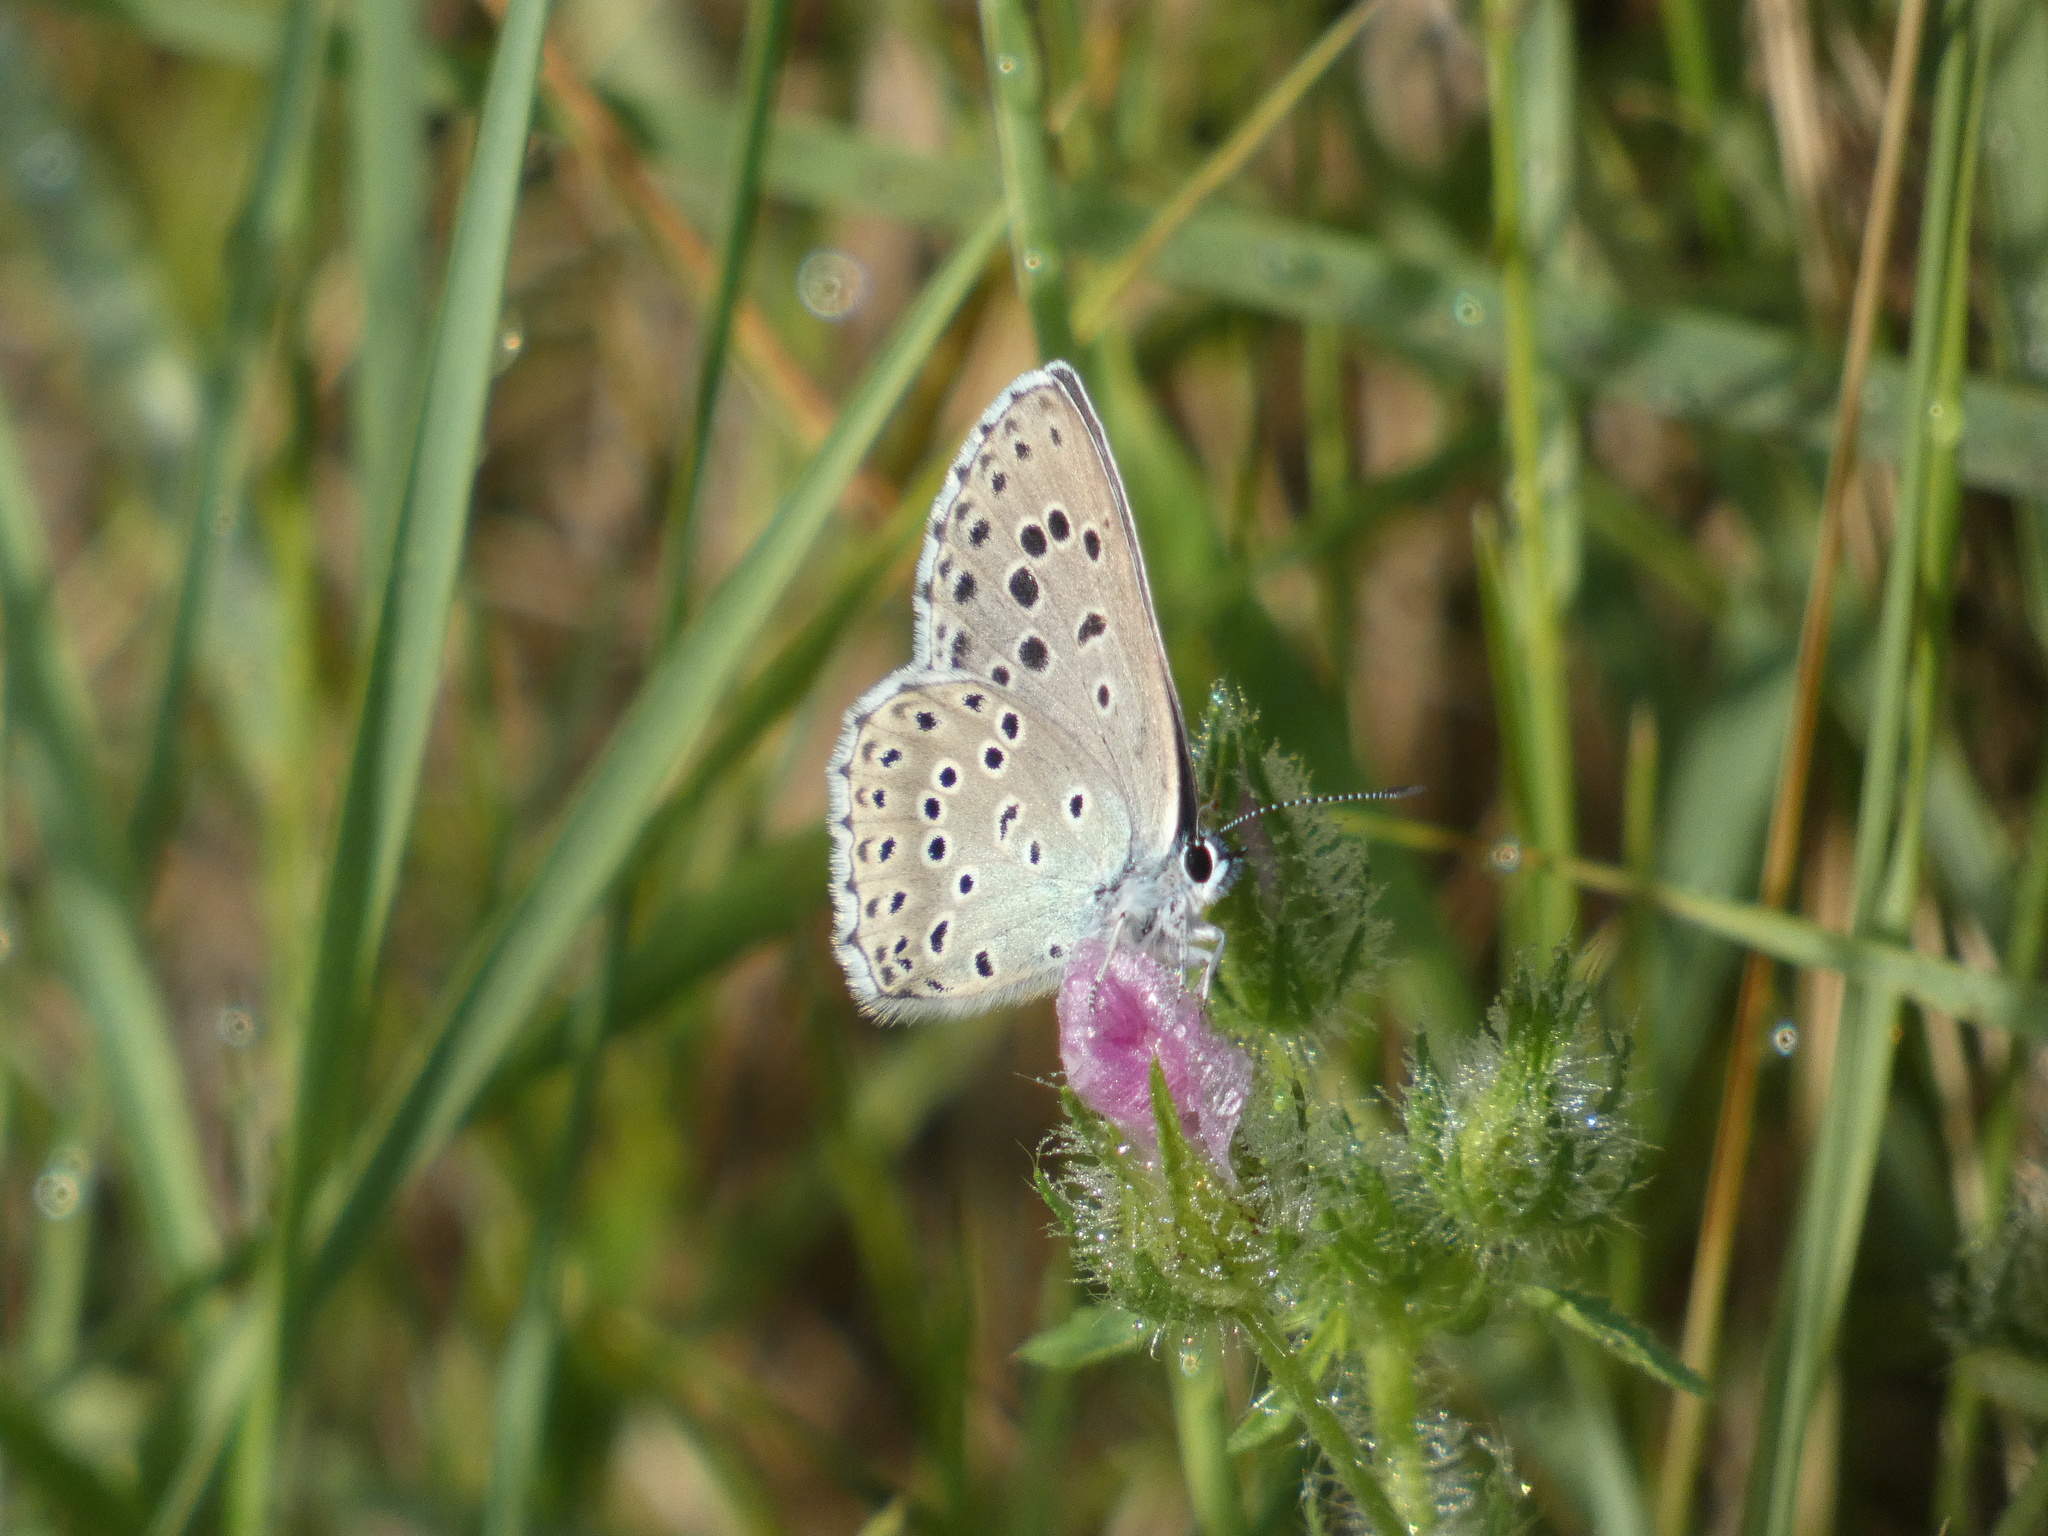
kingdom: Animalia
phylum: Arthropoda
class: Insecta
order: Lepidoptera
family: Lycaenidae
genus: Maculinea
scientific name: Maculinea arion
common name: Large blue
